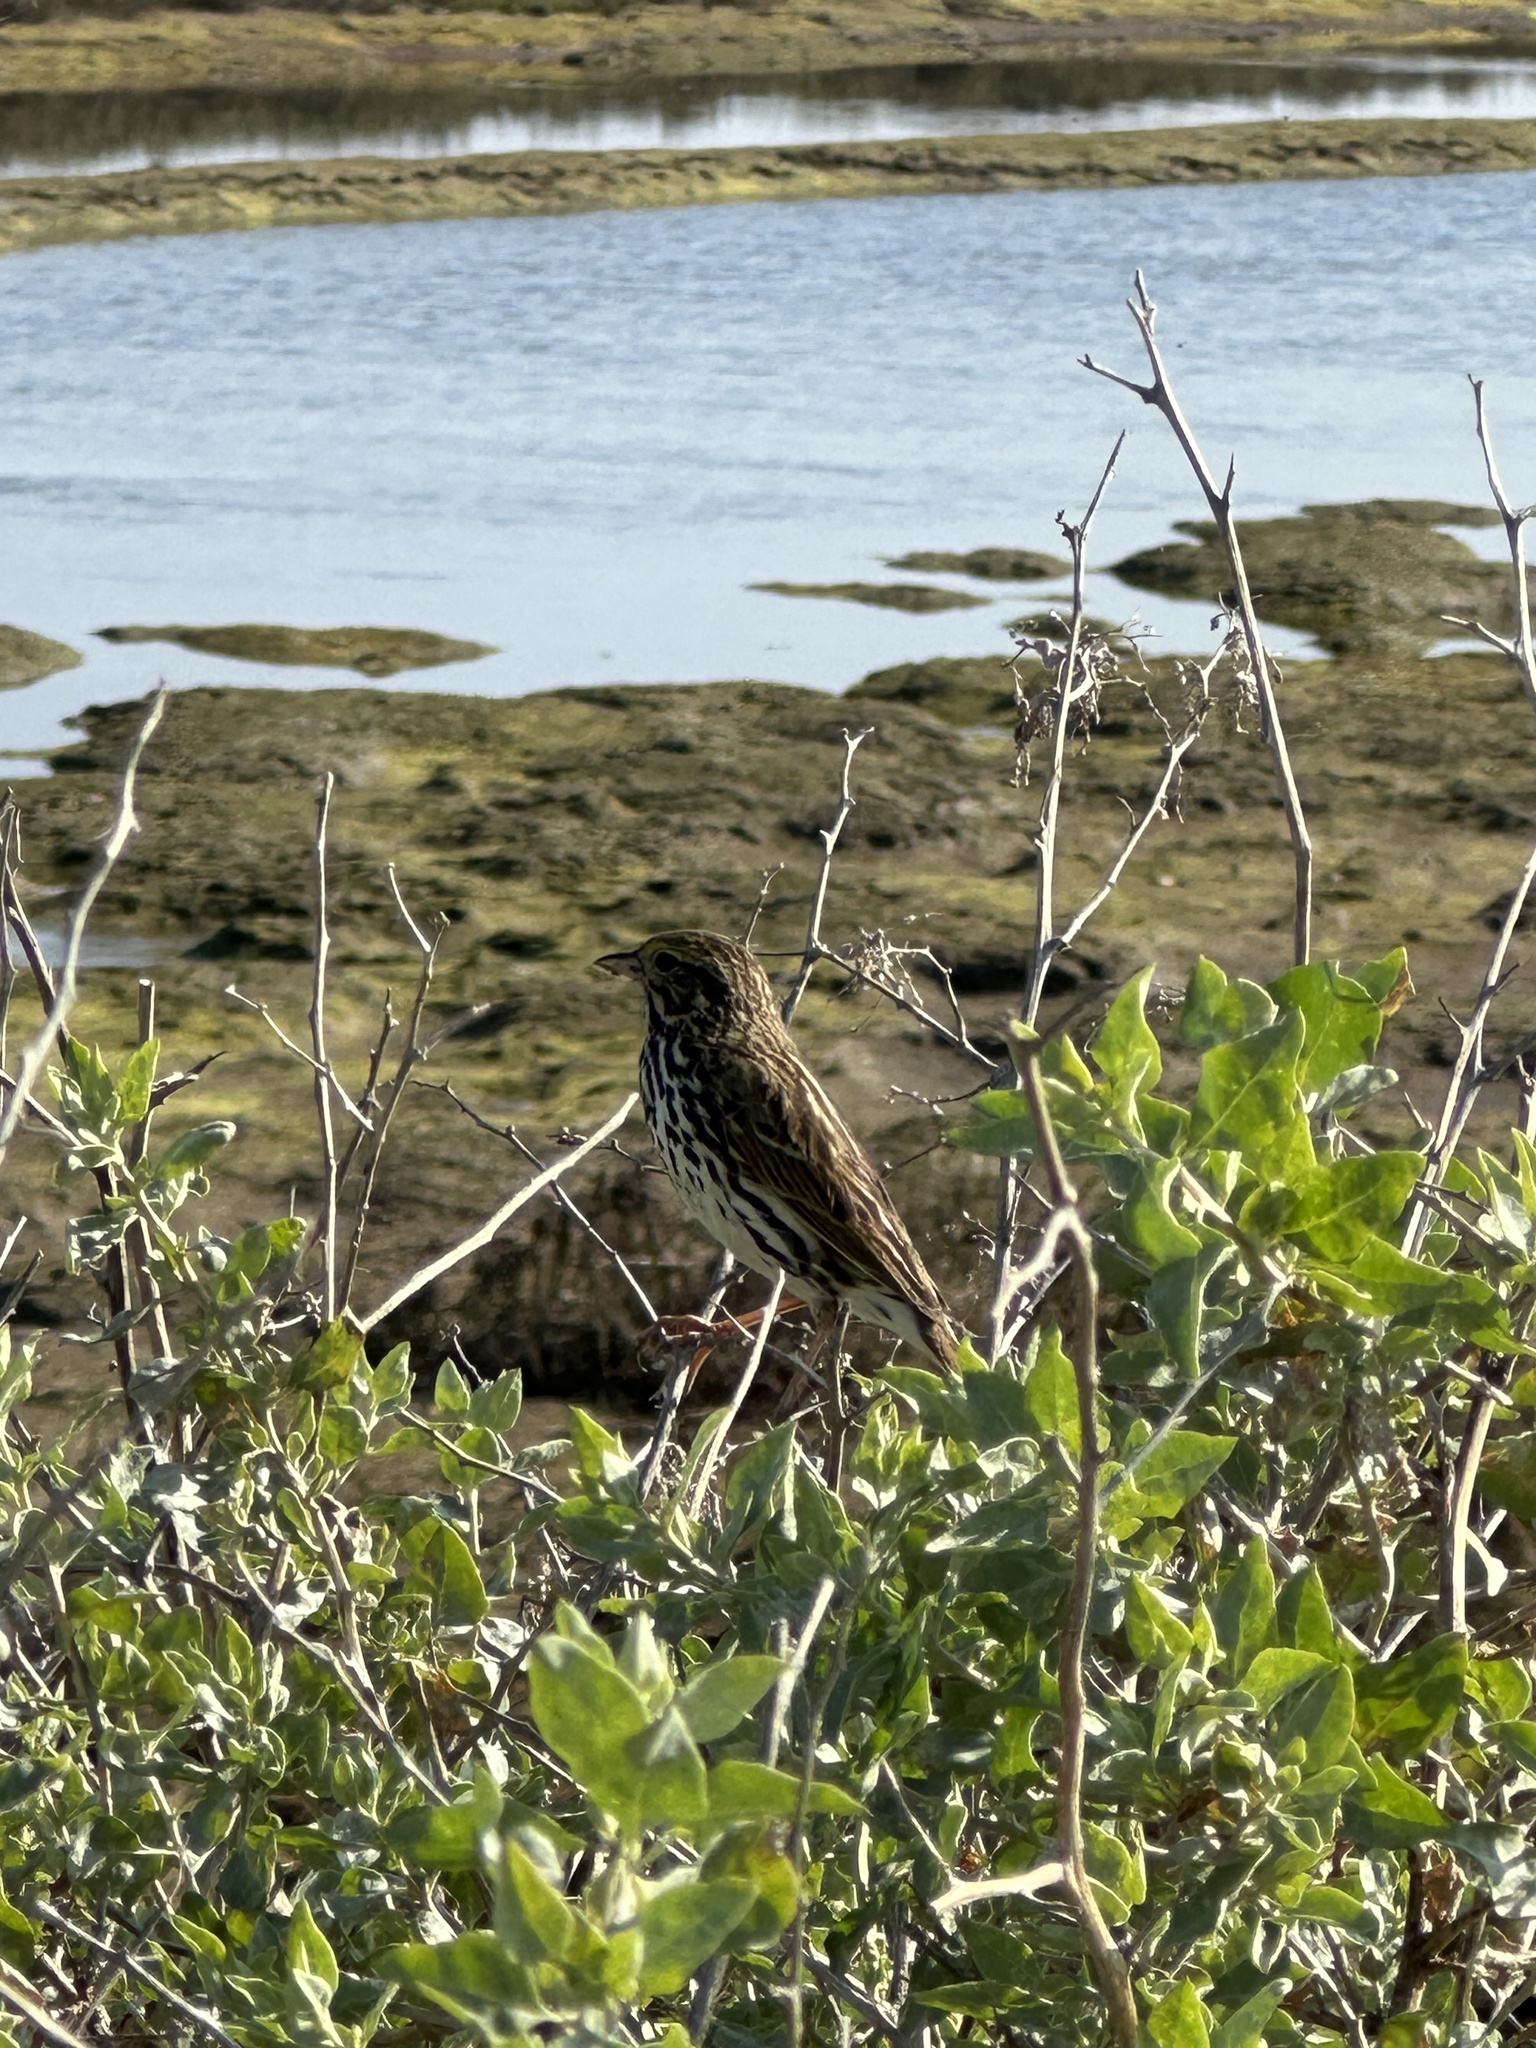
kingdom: Animalia
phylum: Chordata
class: Aves
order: Passeriformes
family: Passerellidae
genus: Passerculus
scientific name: Passerculus sandwichensis
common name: Savannah sparrow
